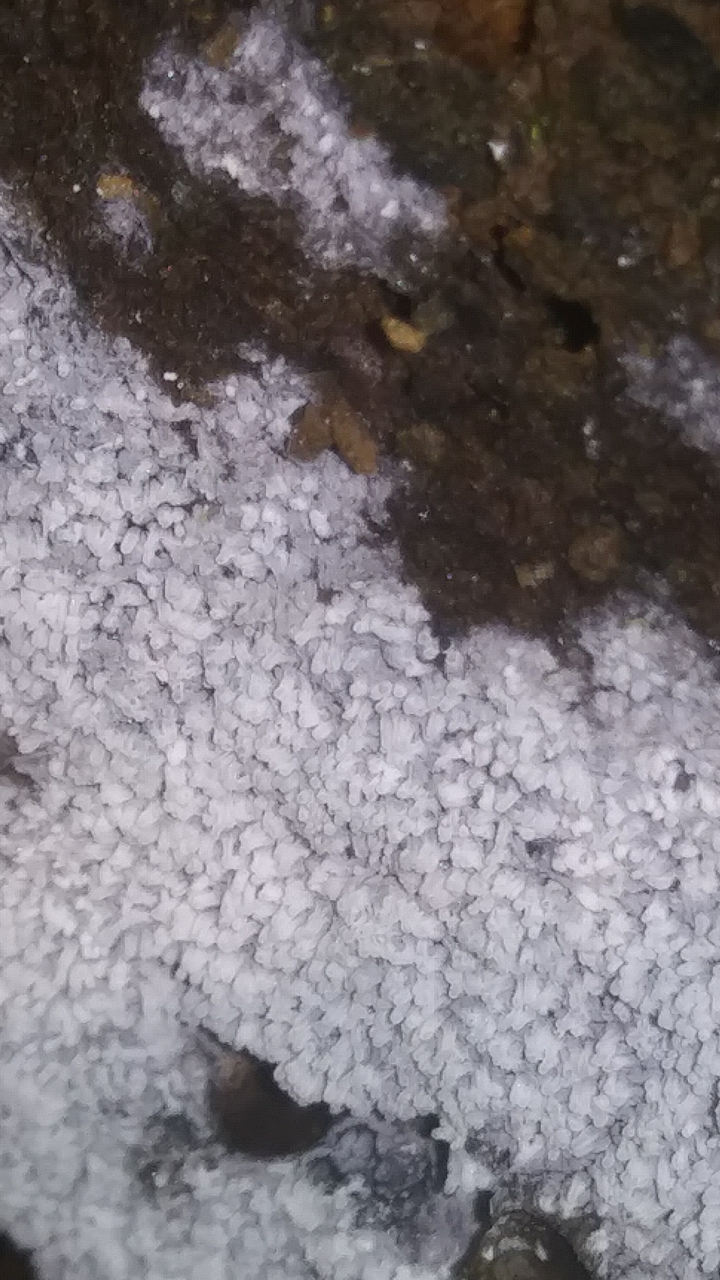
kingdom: Protozoa
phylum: Mycetozoa
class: Protosteliomycetes
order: Ceratiomyxales
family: Ceratiomyxaceae
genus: Ceratiomyxa
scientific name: Ceratiomyxa fruticulosa
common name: Honeycomb coral slime mold
